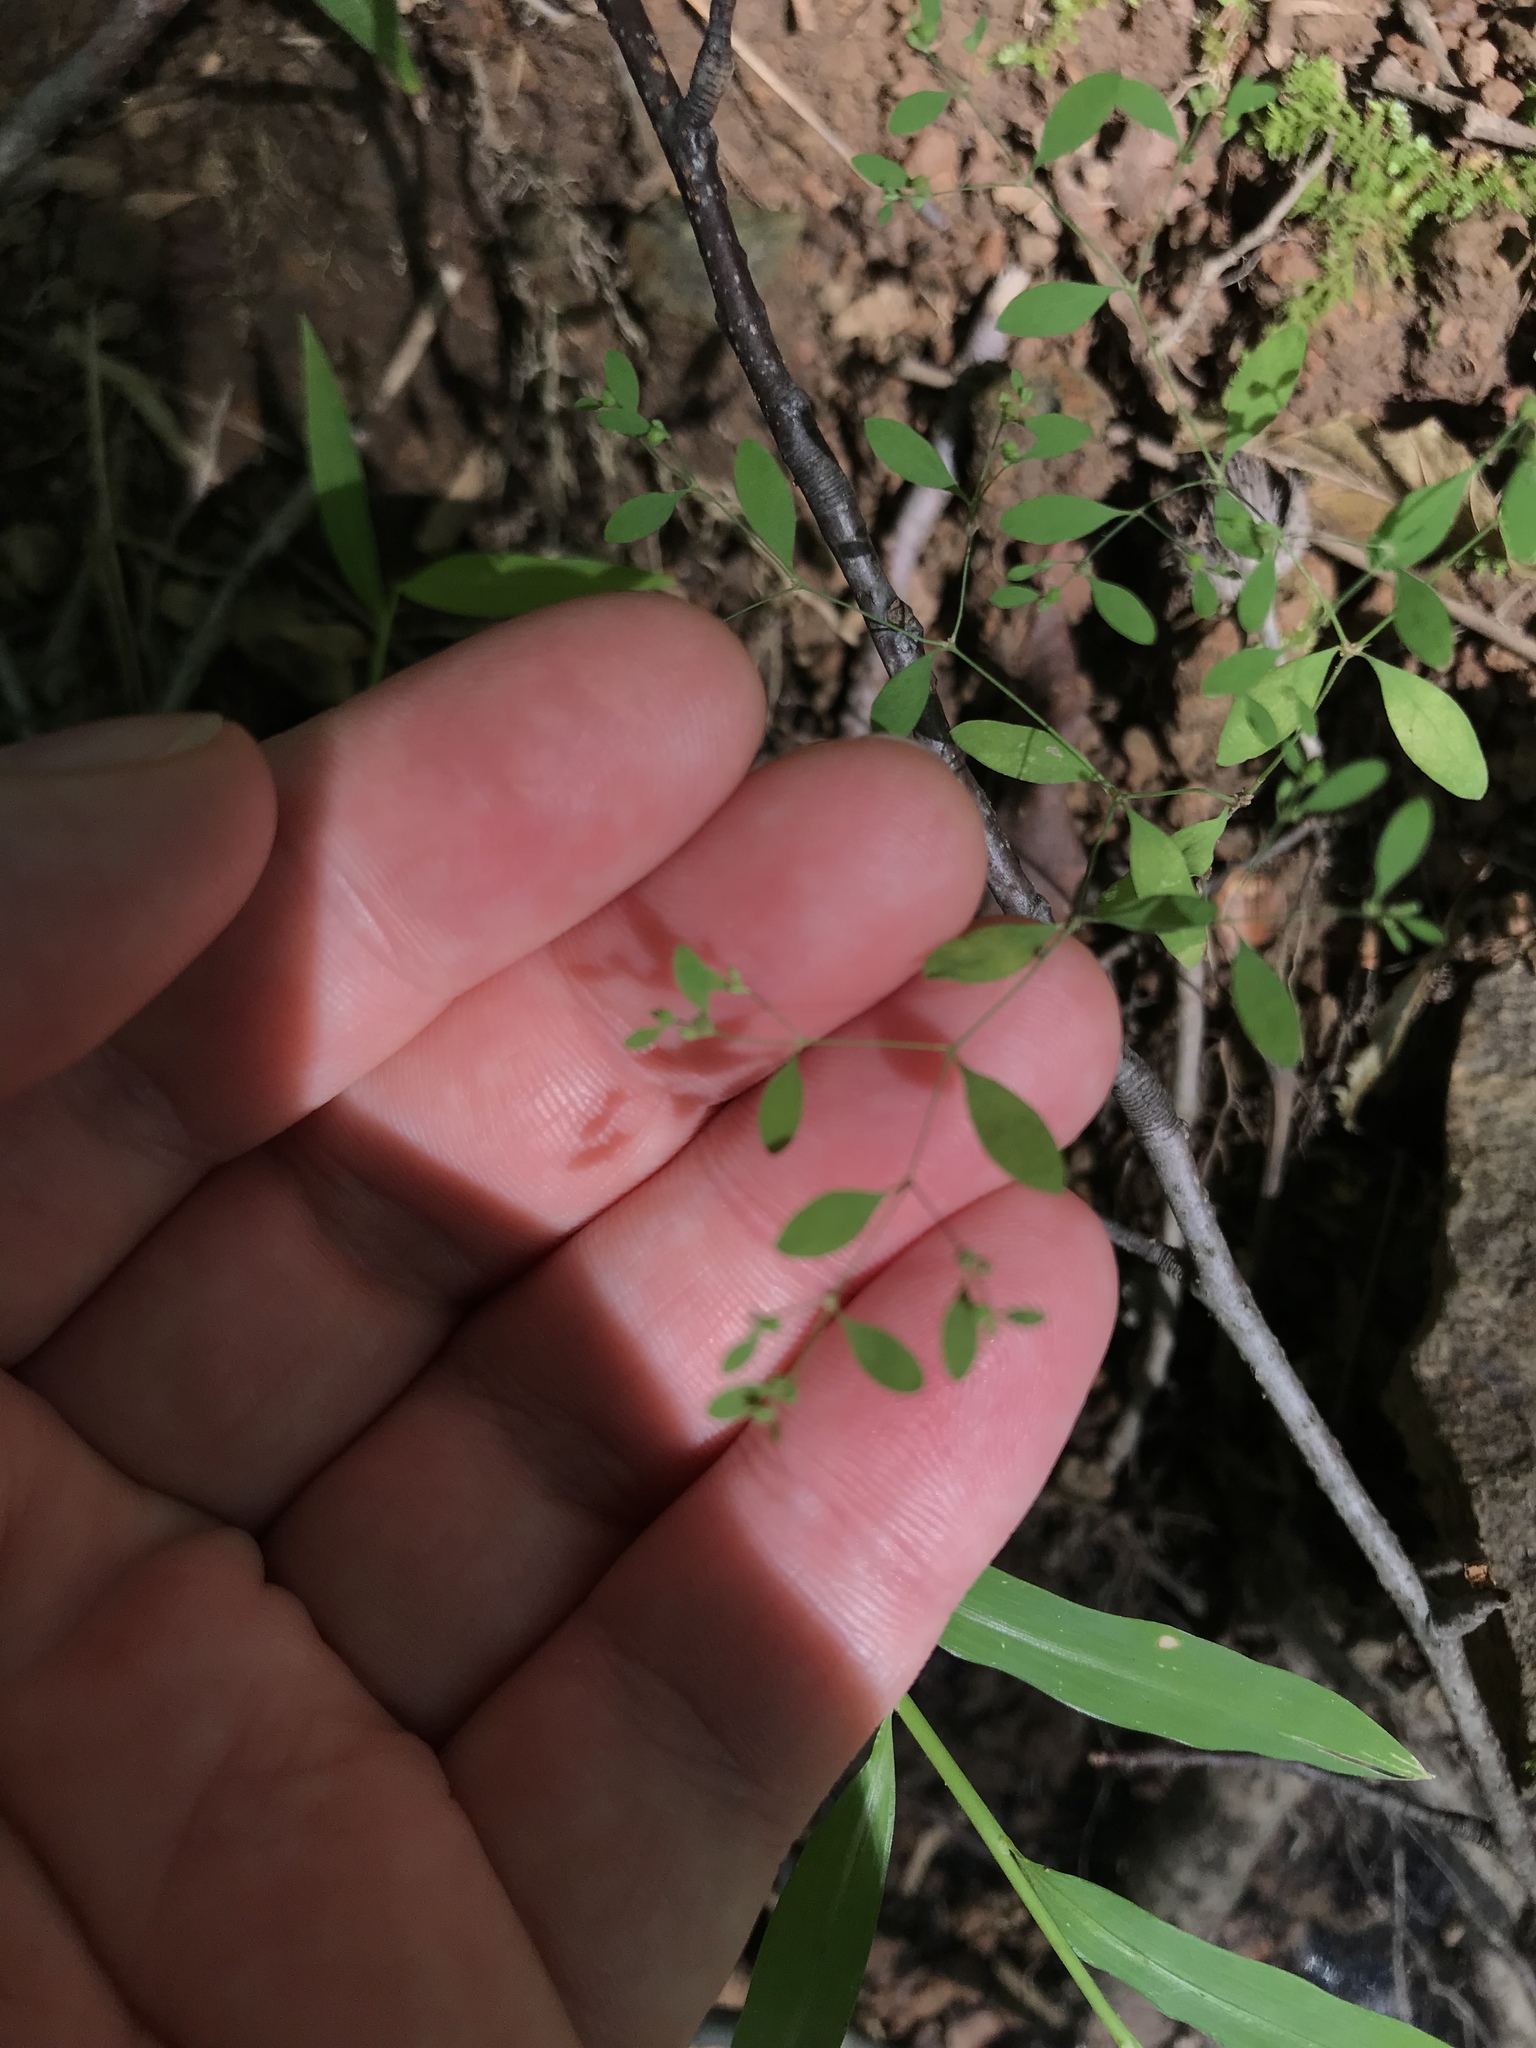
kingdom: Plantae
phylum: Tracheophyta
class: Magnoliopsida
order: Caryophyllales
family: Caryophyllaceae
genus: Paronychia
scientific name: Paronychia canadensis
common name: Canada forked nailwort
